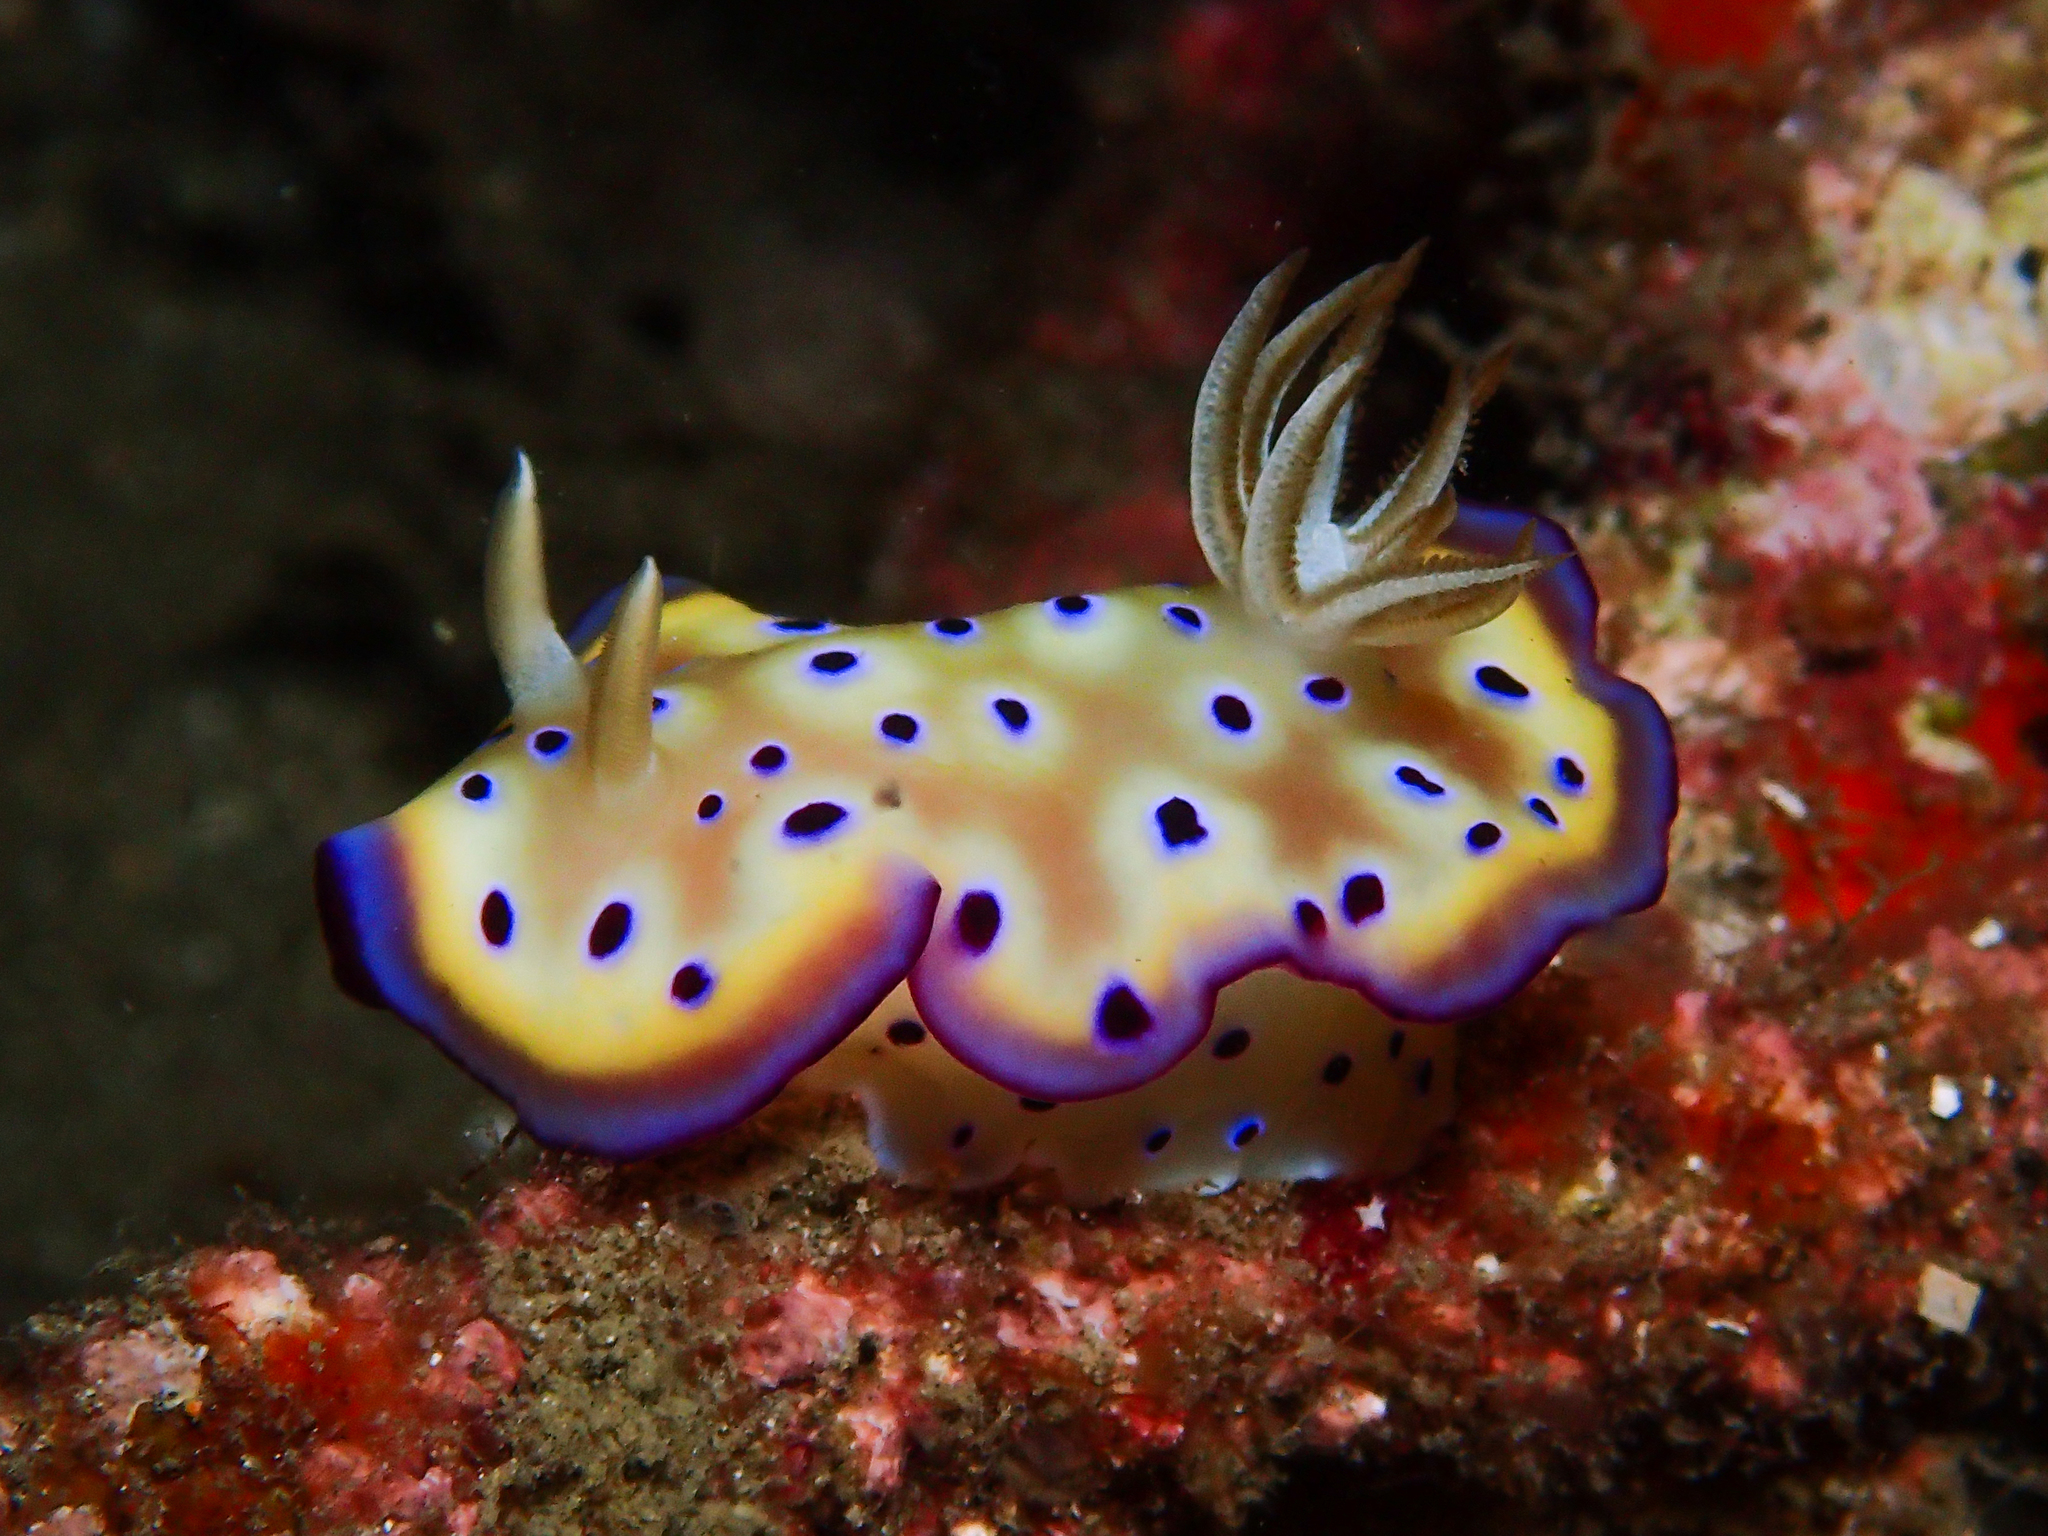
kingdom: Animalia
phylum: Mollusca
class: Gastropoda
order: Nudibranchia
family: Chromodorididae
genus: Goniobranchus
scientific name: Goniobranchus kuniei
